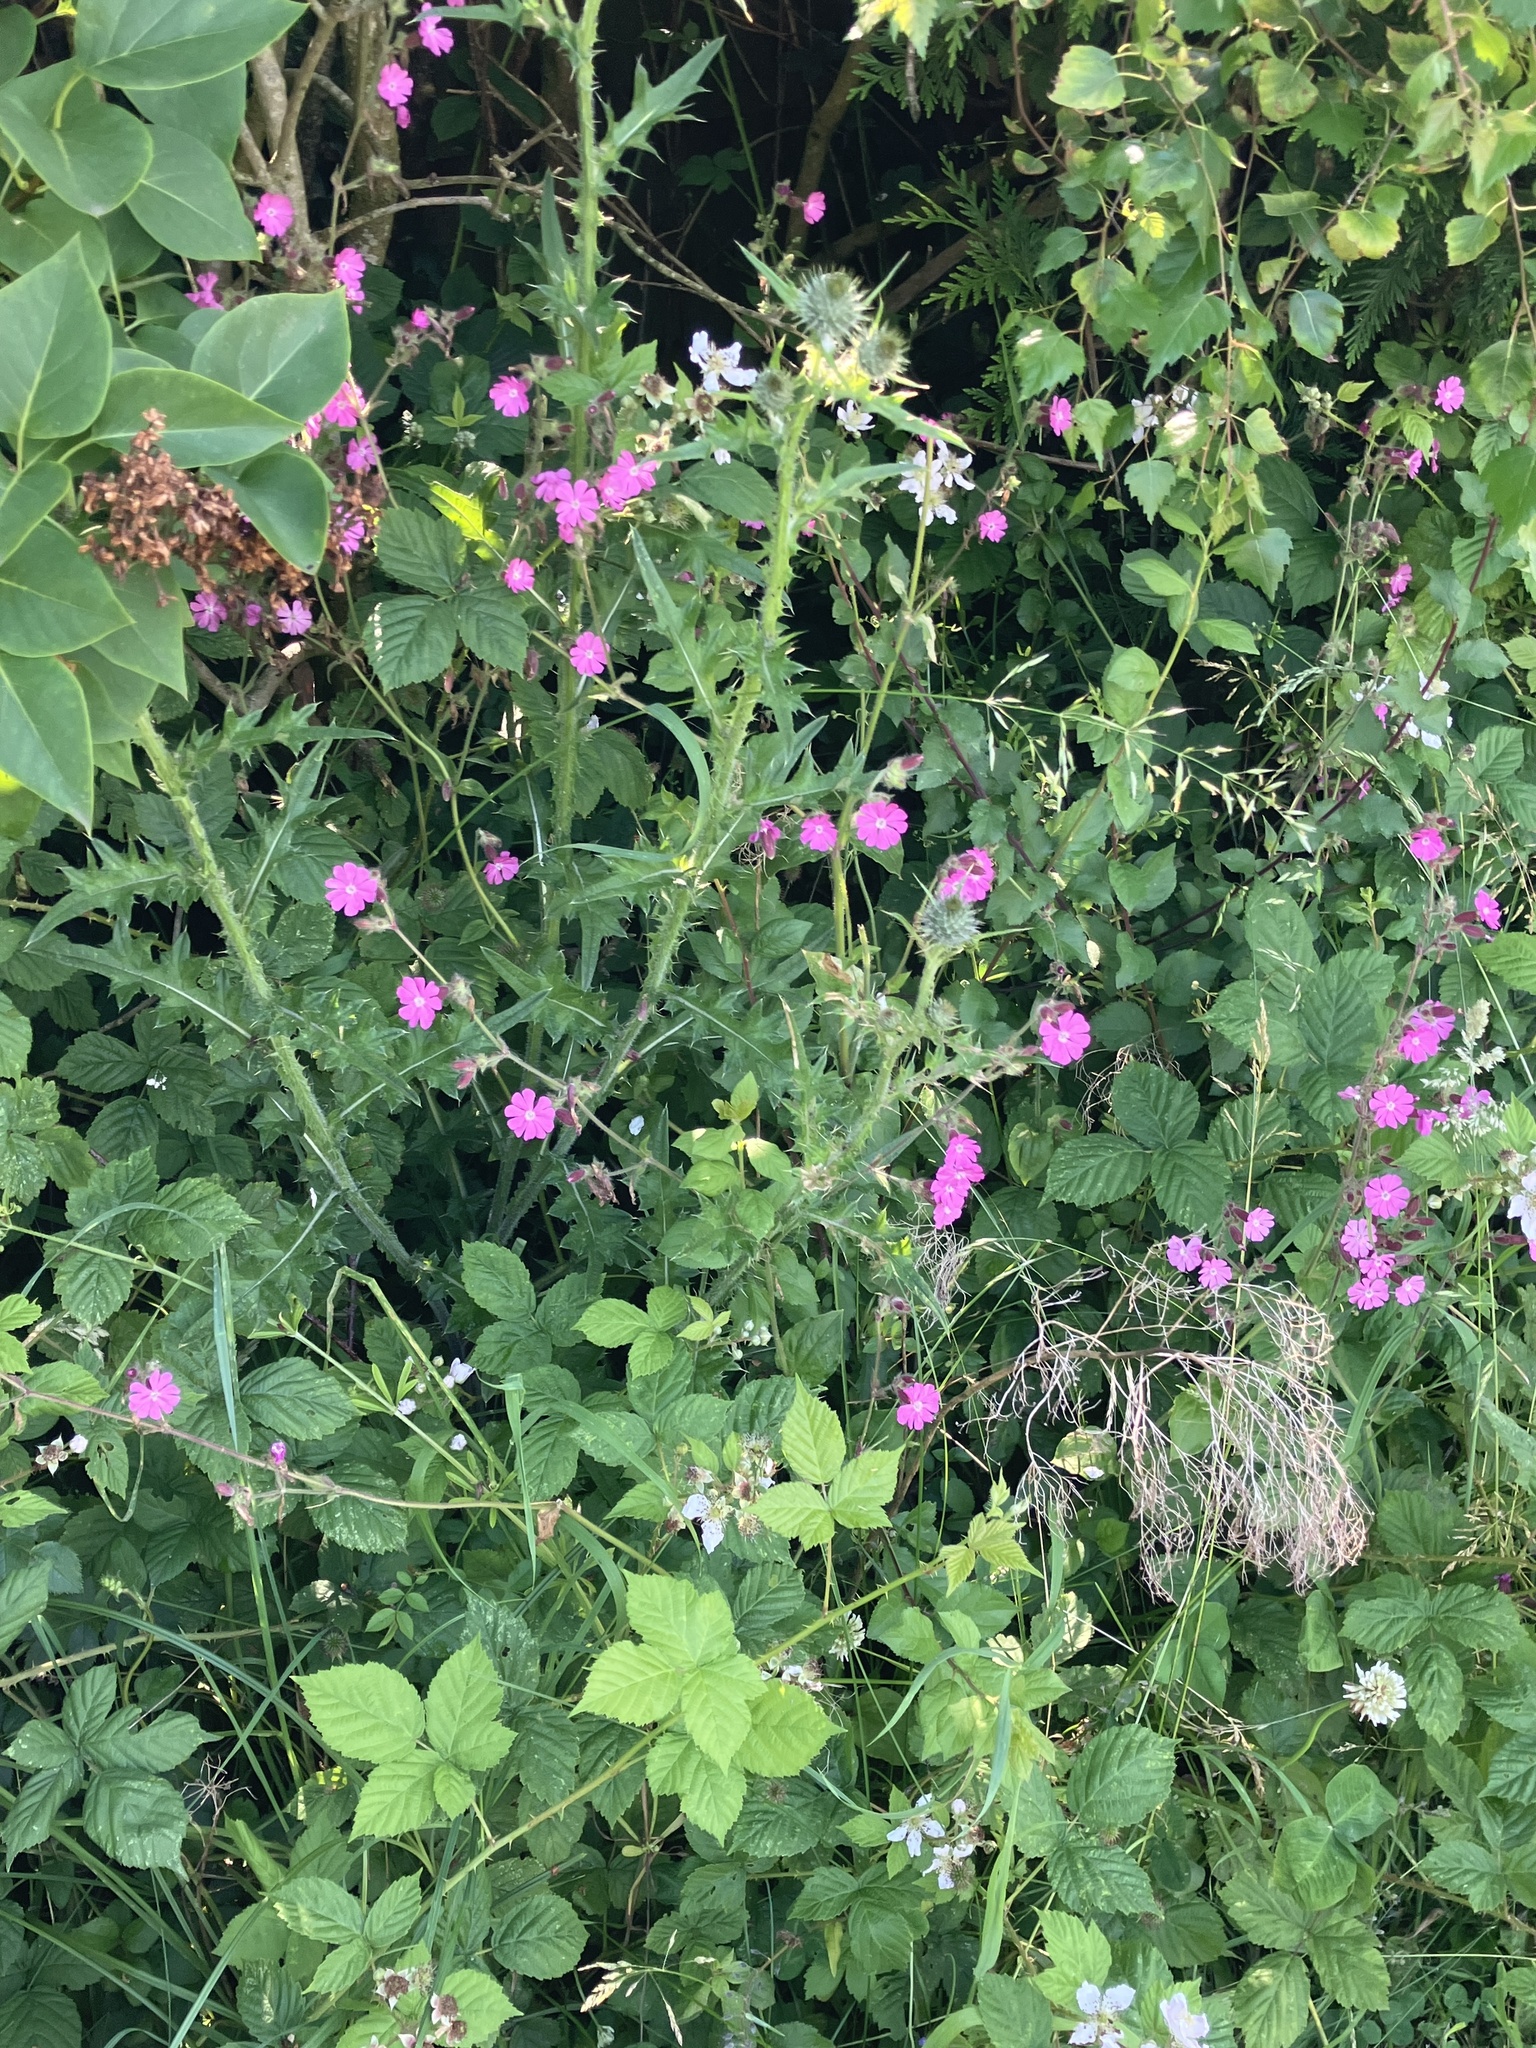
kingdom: Plantae
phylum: Tracheophyta
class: Magnoliopsida
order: Caryophyllales
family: Caryophyllaceae
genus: Silene
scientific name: Silene dioica
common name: Red campion
